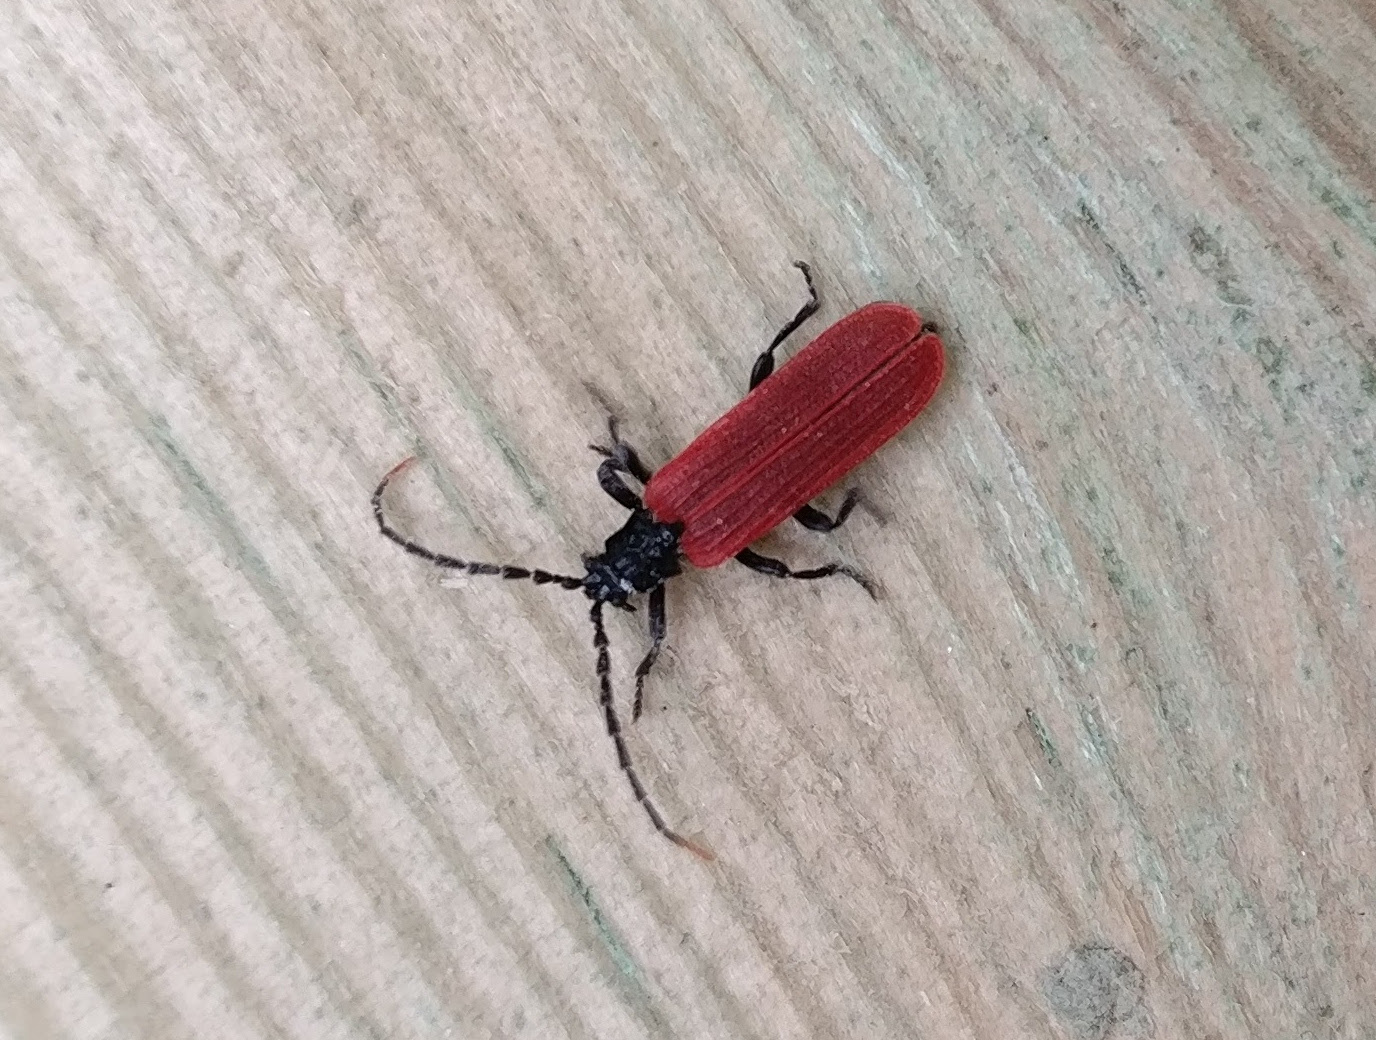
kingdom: Animalia
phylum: Arthropoda
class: Insecta
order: Coleoptera
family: Lycidae
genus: Platycis
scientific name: Platycis minutus
